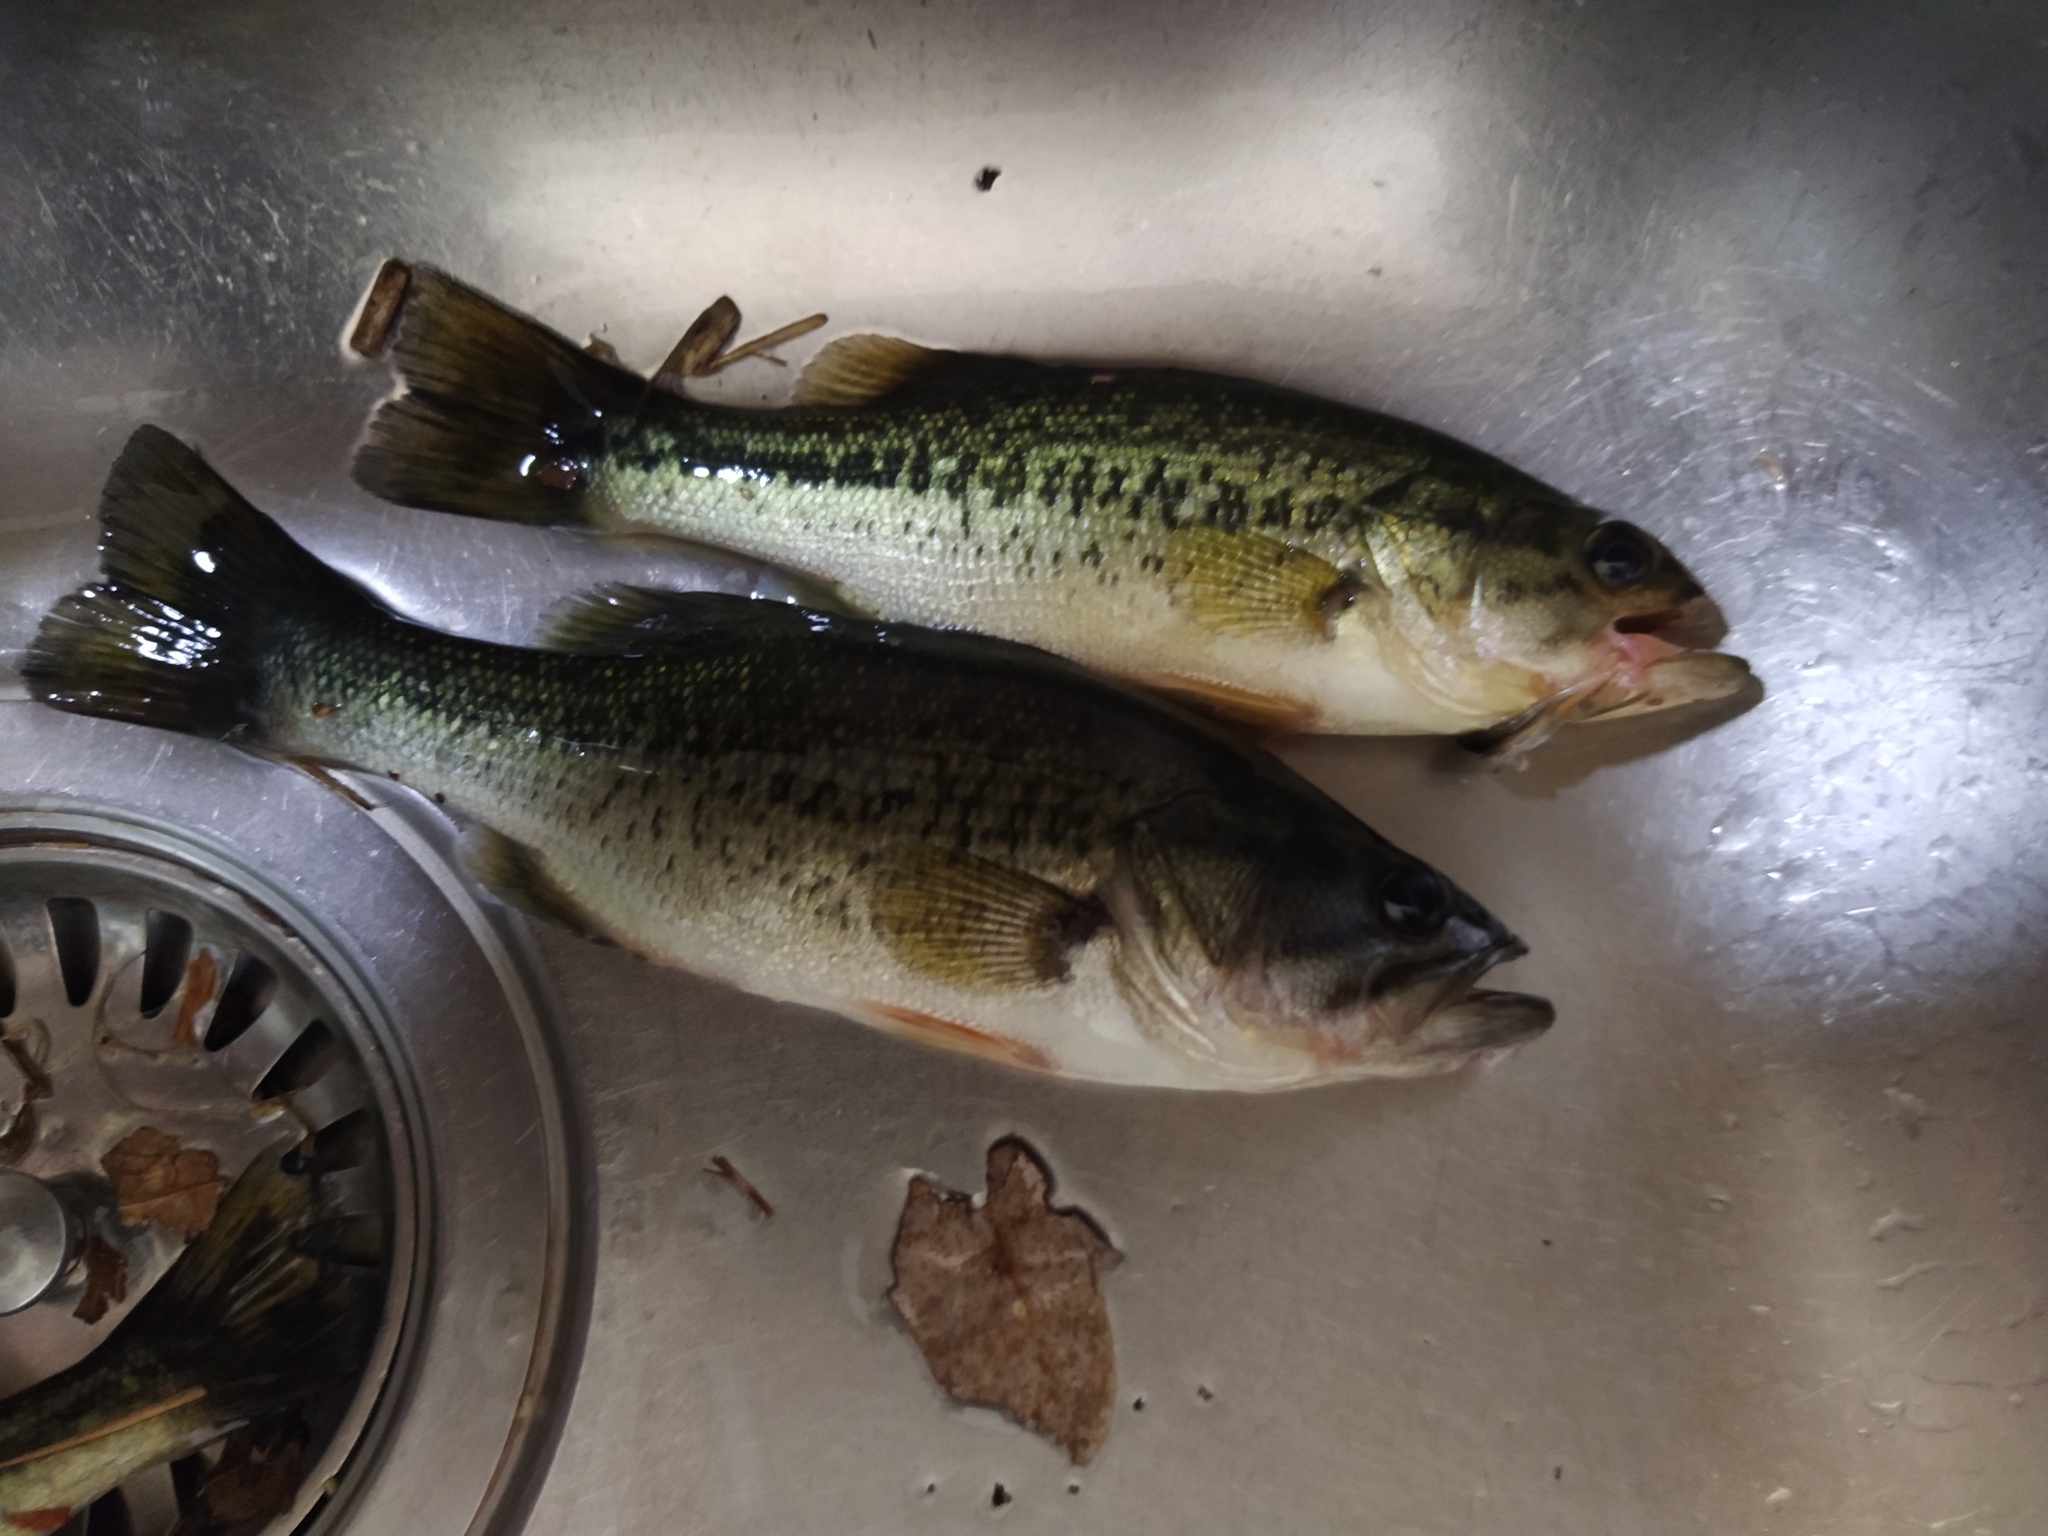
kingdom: Animalia
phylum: Chordata
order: Perciformes
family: Centrarchidae
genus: Micropterus
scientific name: Micropterus
